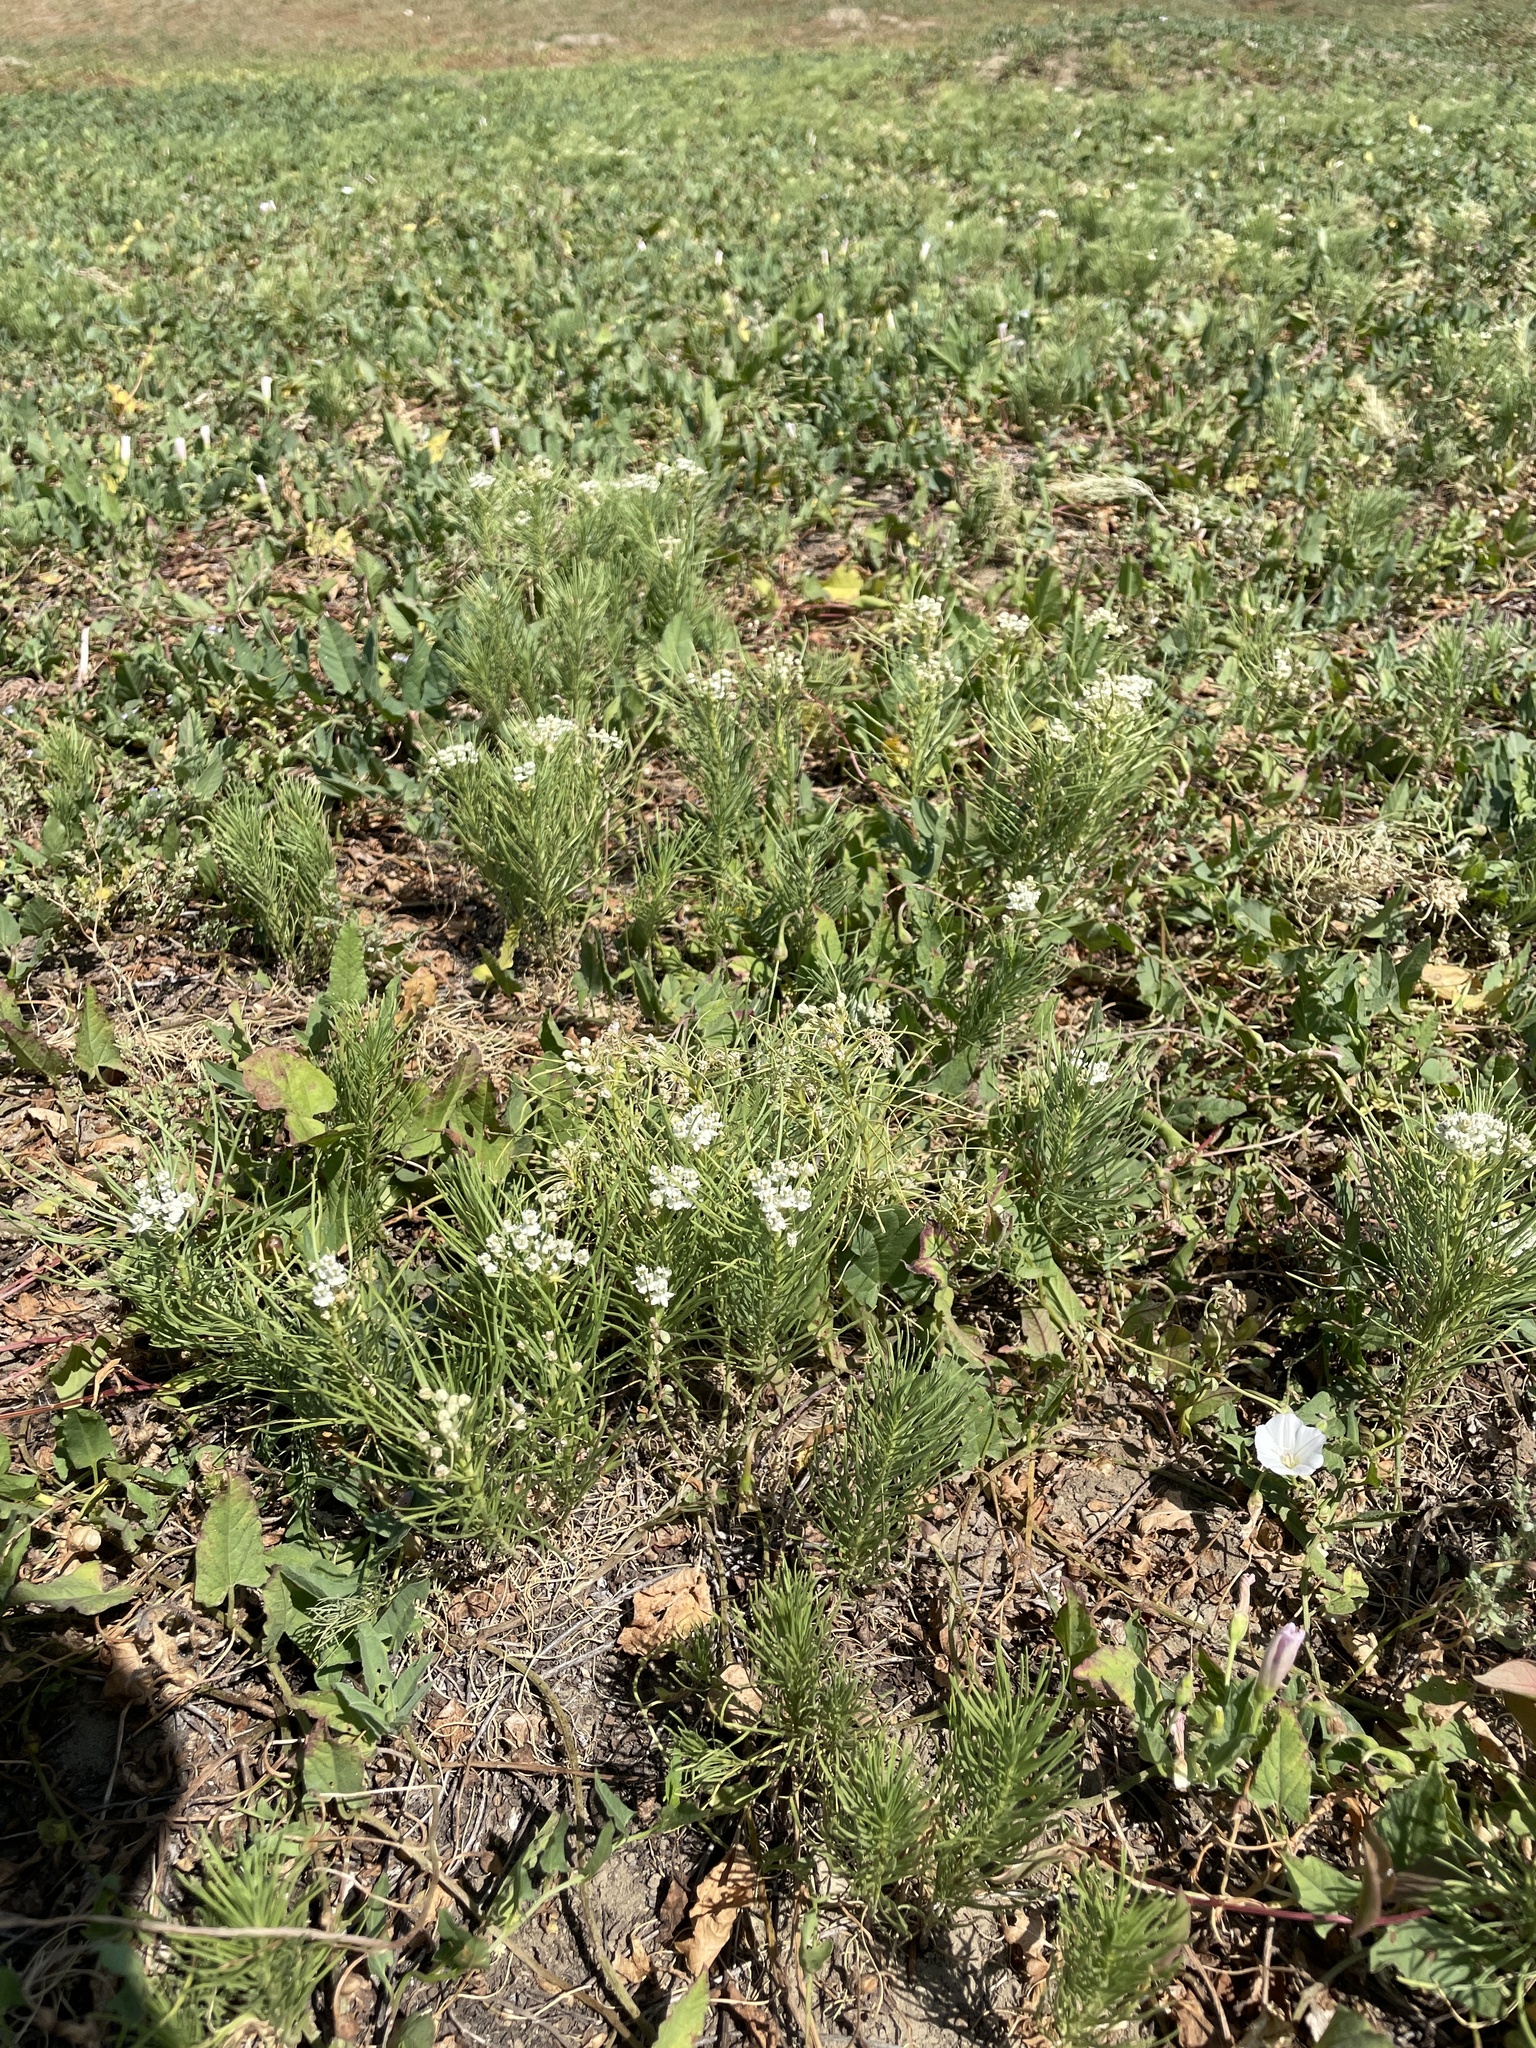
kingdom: Plantae
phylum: Tracheophyta
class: Magnoliopsida
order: Gentianales
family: Apocynaceae
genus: Asclepias
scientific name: Asclepias pumila
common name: Dwarf milkweed
